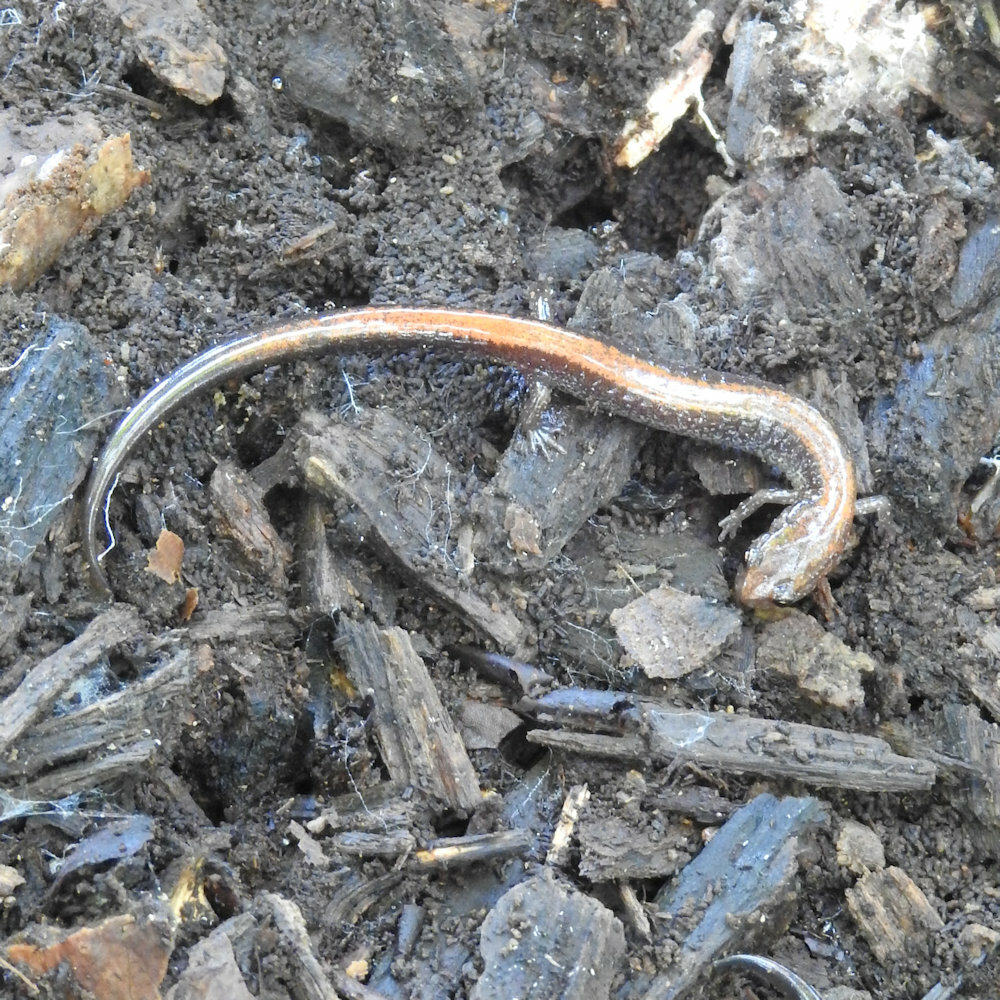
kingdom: Animalia
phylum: Chordata
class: Amphibia
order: Caudata
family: Plethodontidae
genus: Plethodon
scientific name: Plethodon cinereus
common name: Redback salamander
